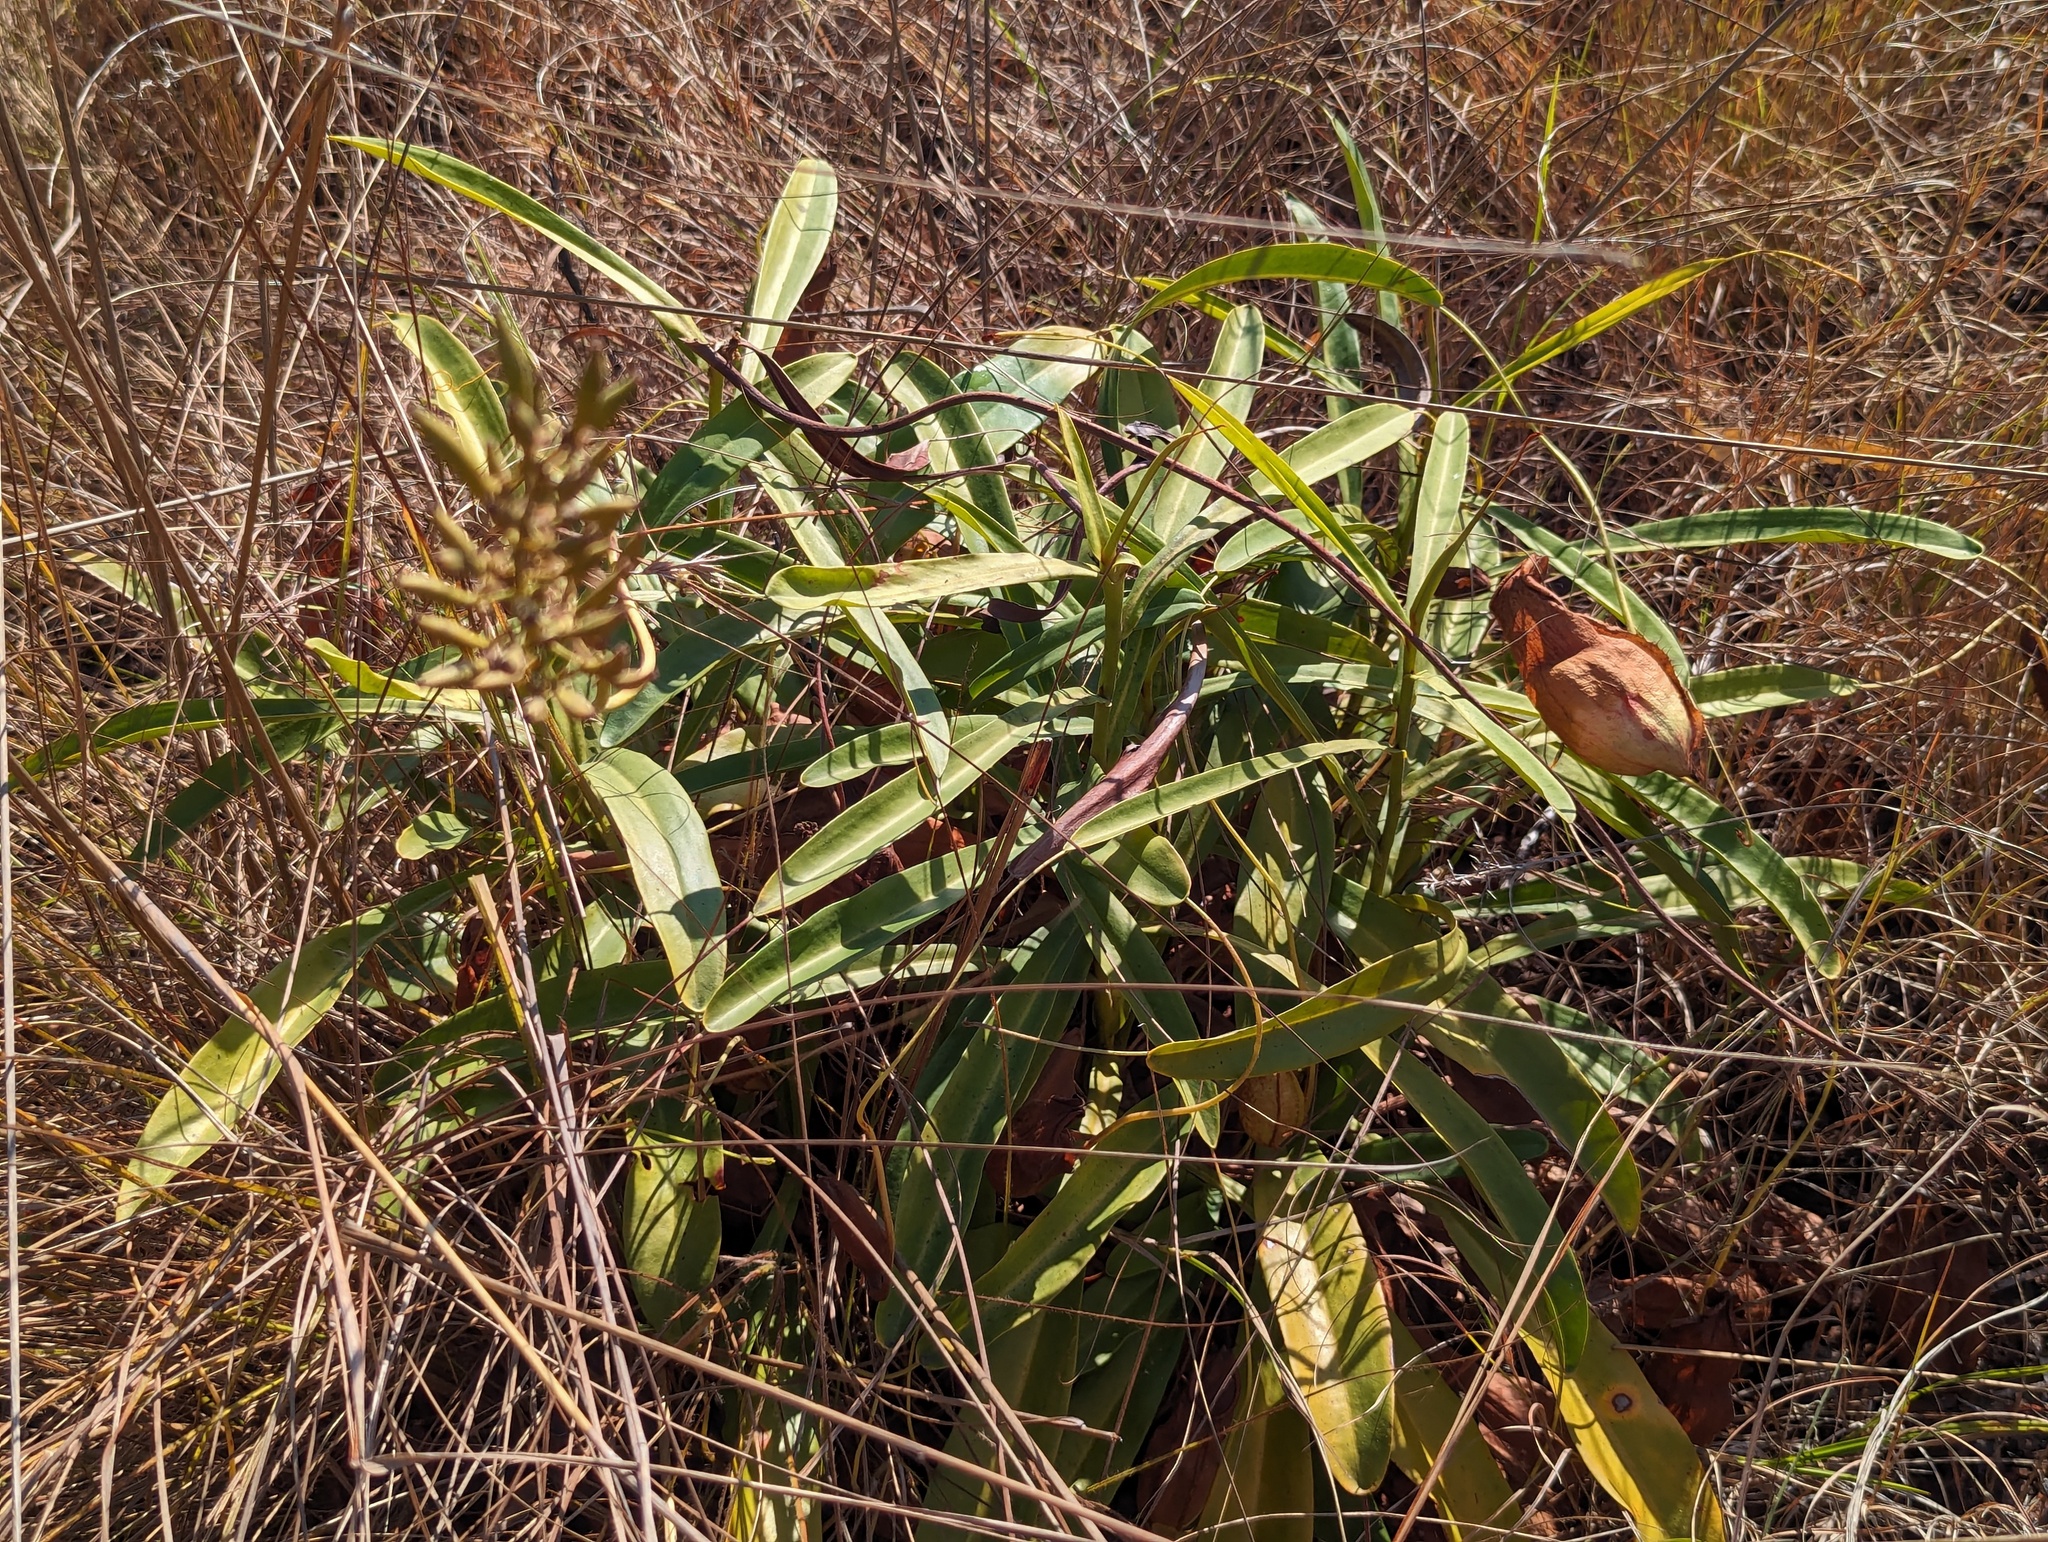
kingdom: Plantae
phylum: Tracheophyta
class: Magnoliopsida
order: Caryophyllales
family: Nepenthaceae
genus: Nepenthes
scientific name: Nepenthes abalata
